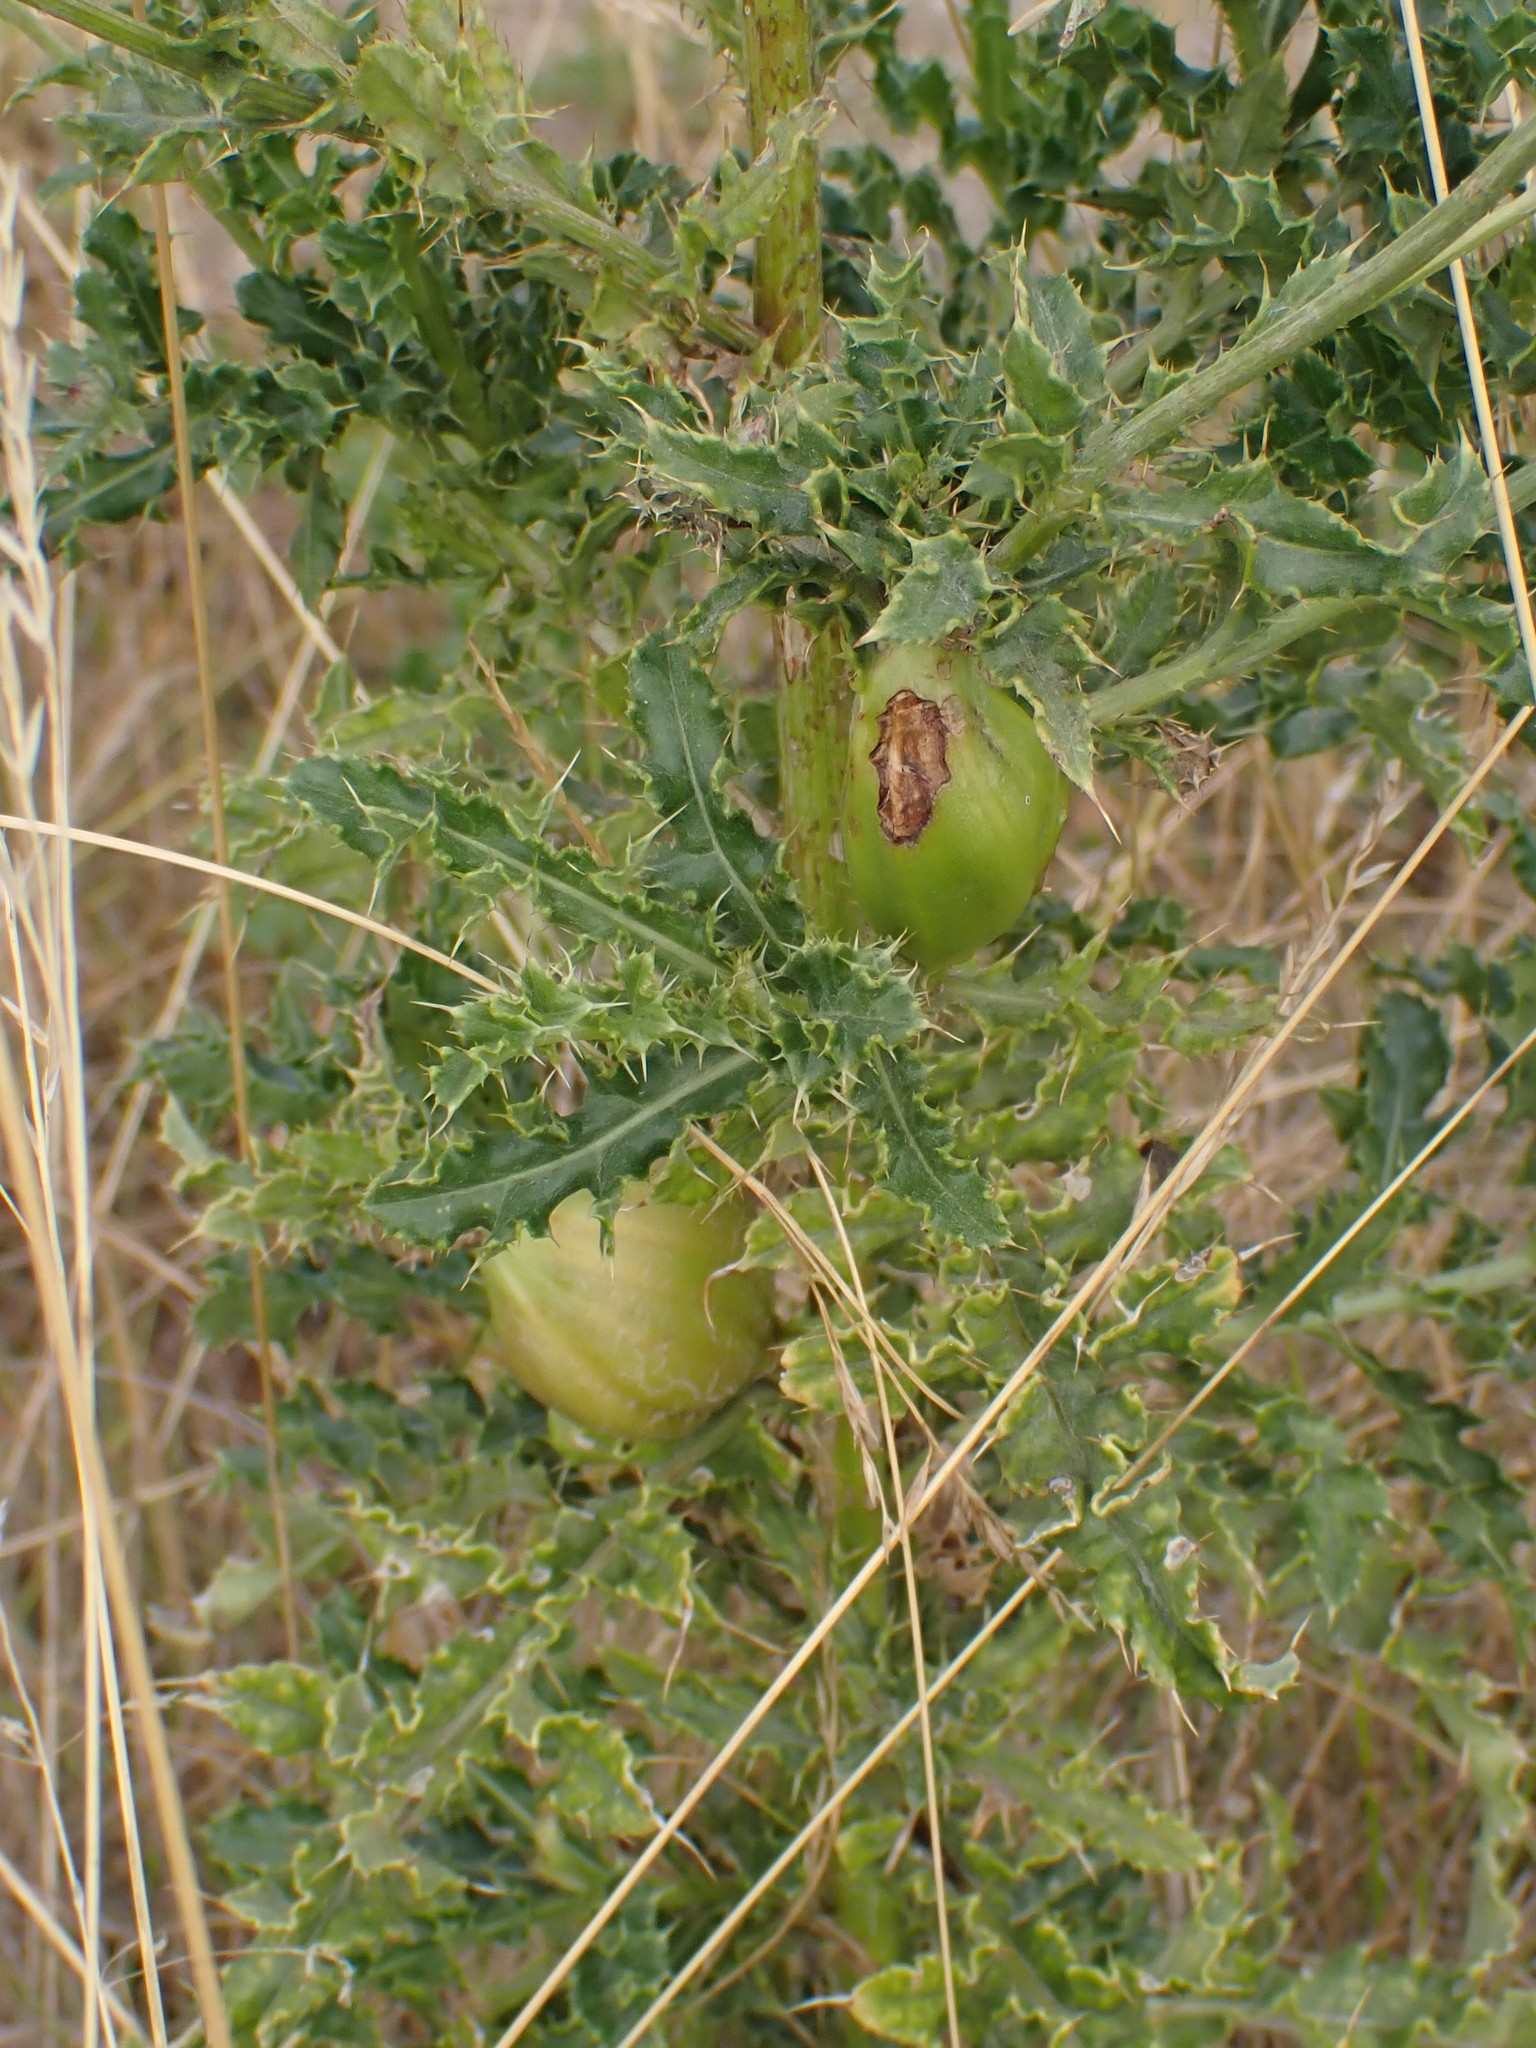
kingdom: Animalia
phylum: Arthropoda
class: Insecta
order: Diptera
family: Tephritidae
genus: Urophora
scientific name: Urophora cardui
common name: Fruit fly
